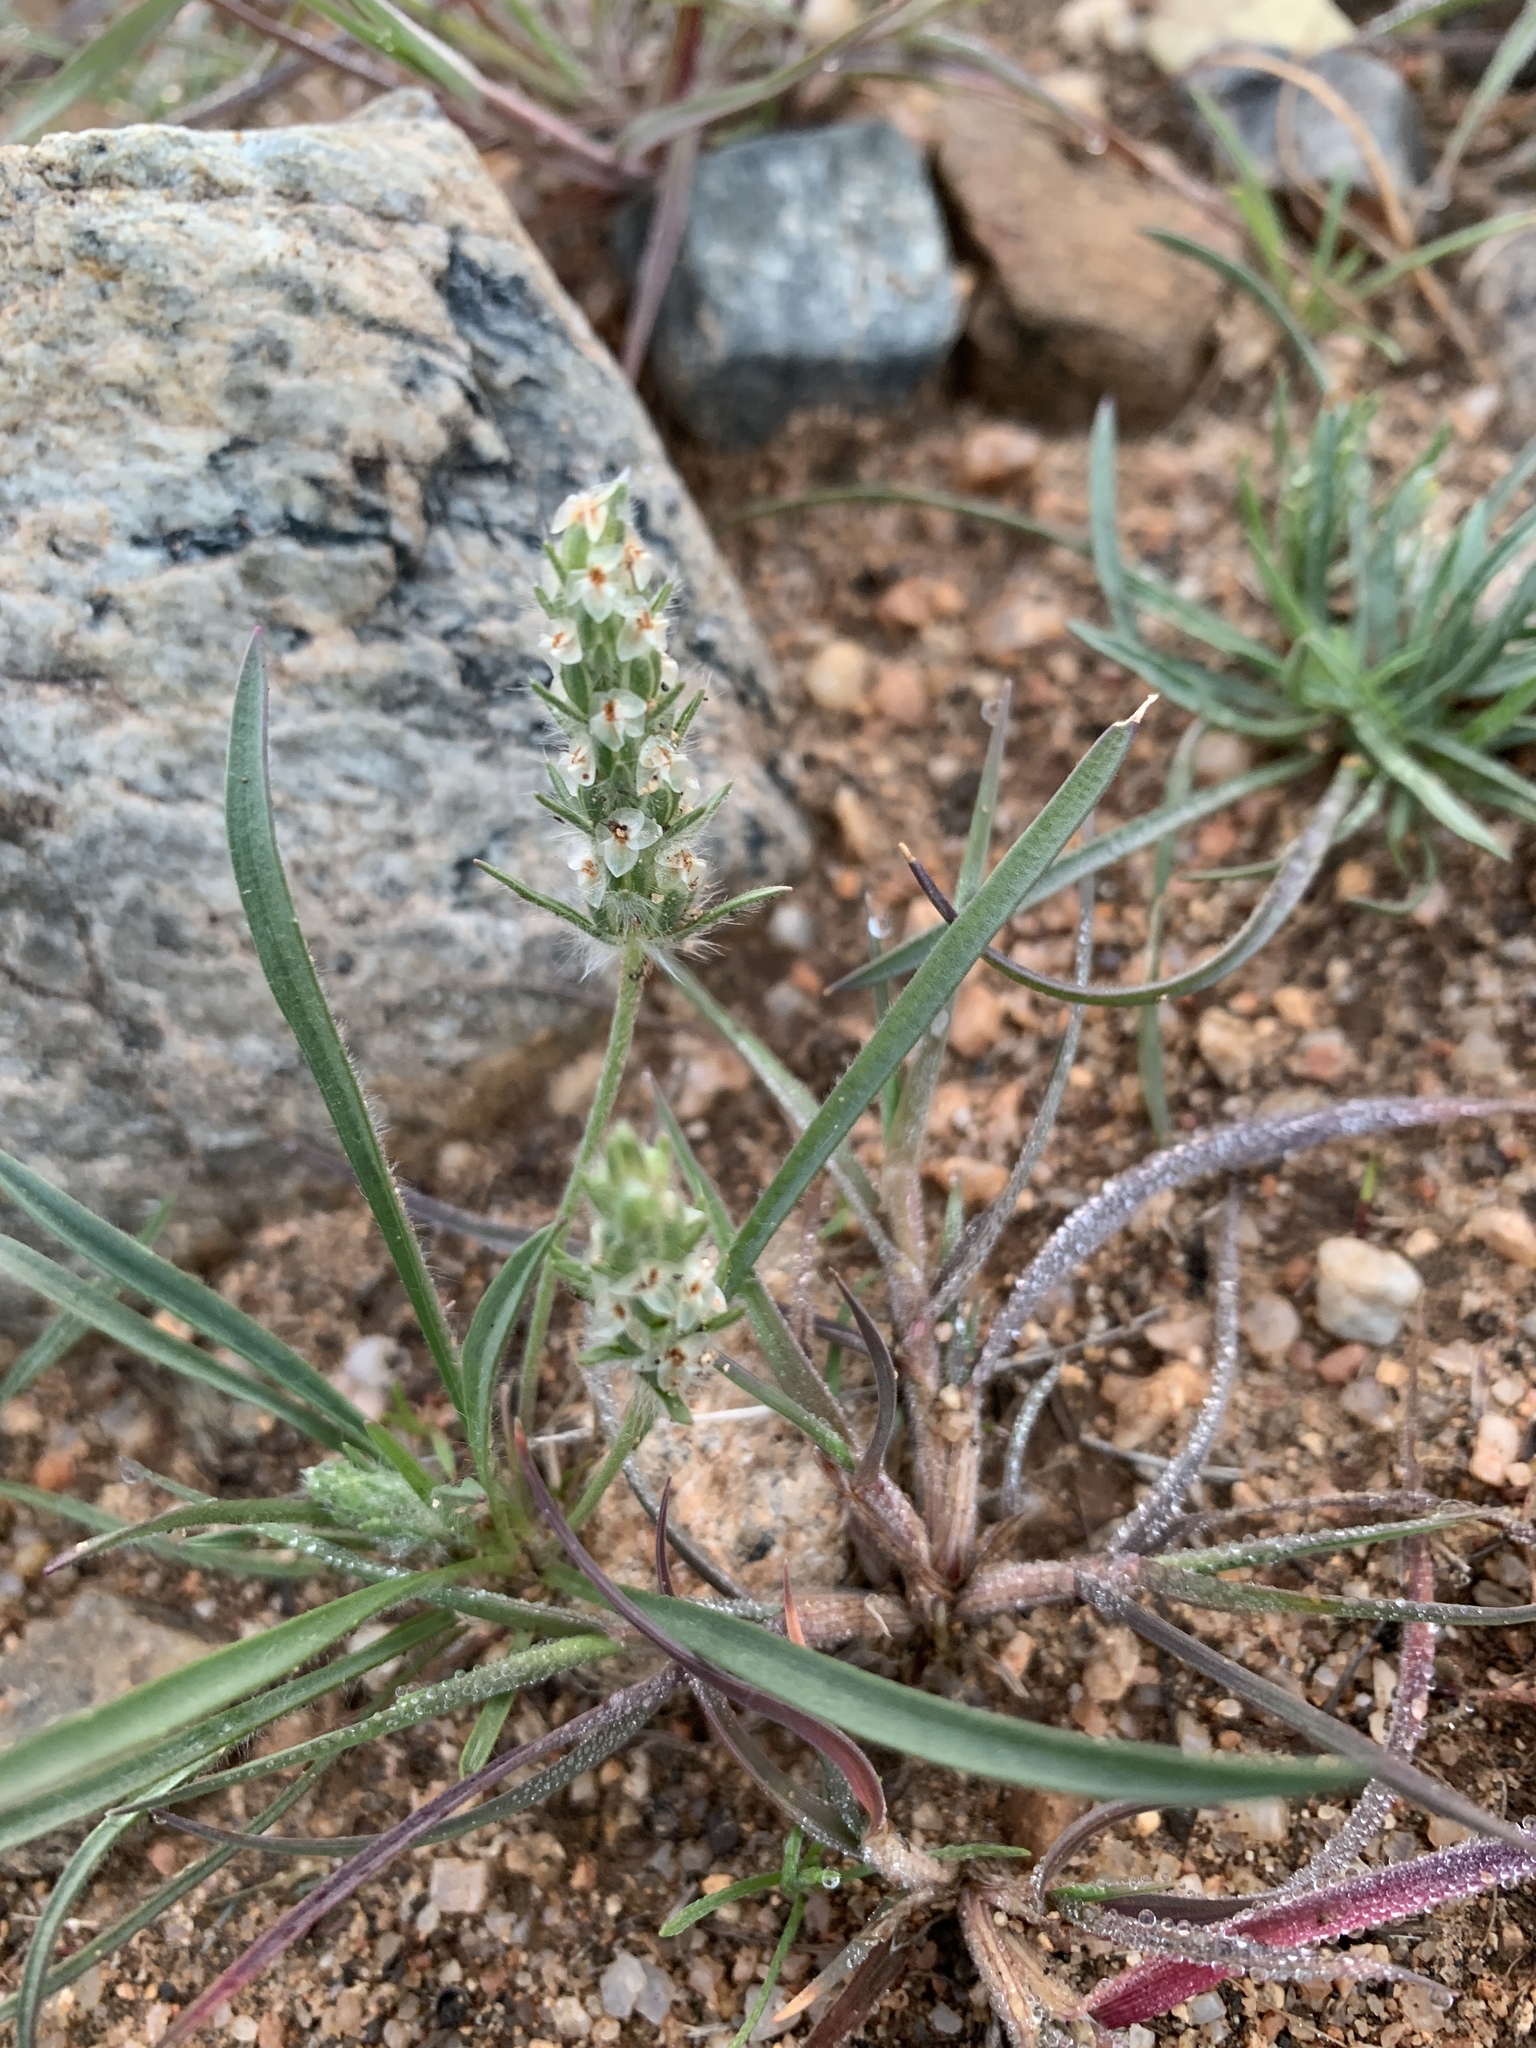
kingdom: Plantae
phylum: Tracheophyta
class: Magnoliopsida
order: Lamiales
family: Plantaginaceae
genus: Plantago
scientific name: Plantago patagonica
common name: Patagonia indian-wheat
